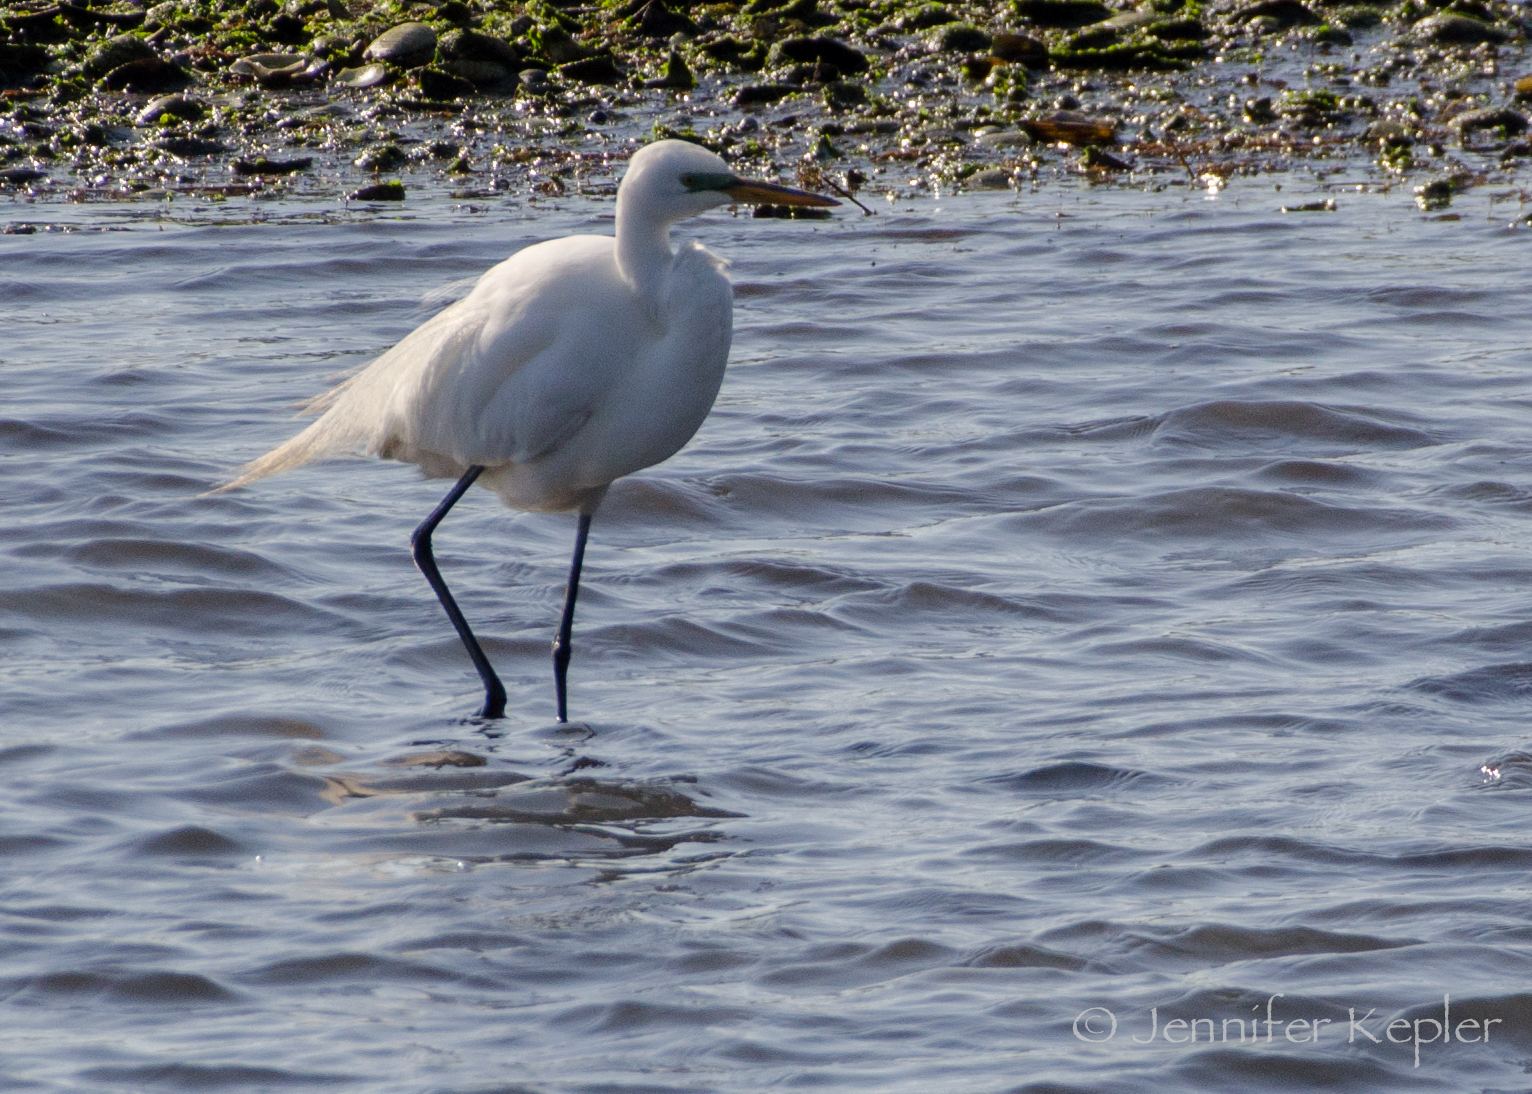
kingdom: Animalia
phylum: Chordata
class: Aves
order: Pelecaniformes
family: Ardeidae
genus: Ardea
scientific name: Ardea alba
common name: Great egret
